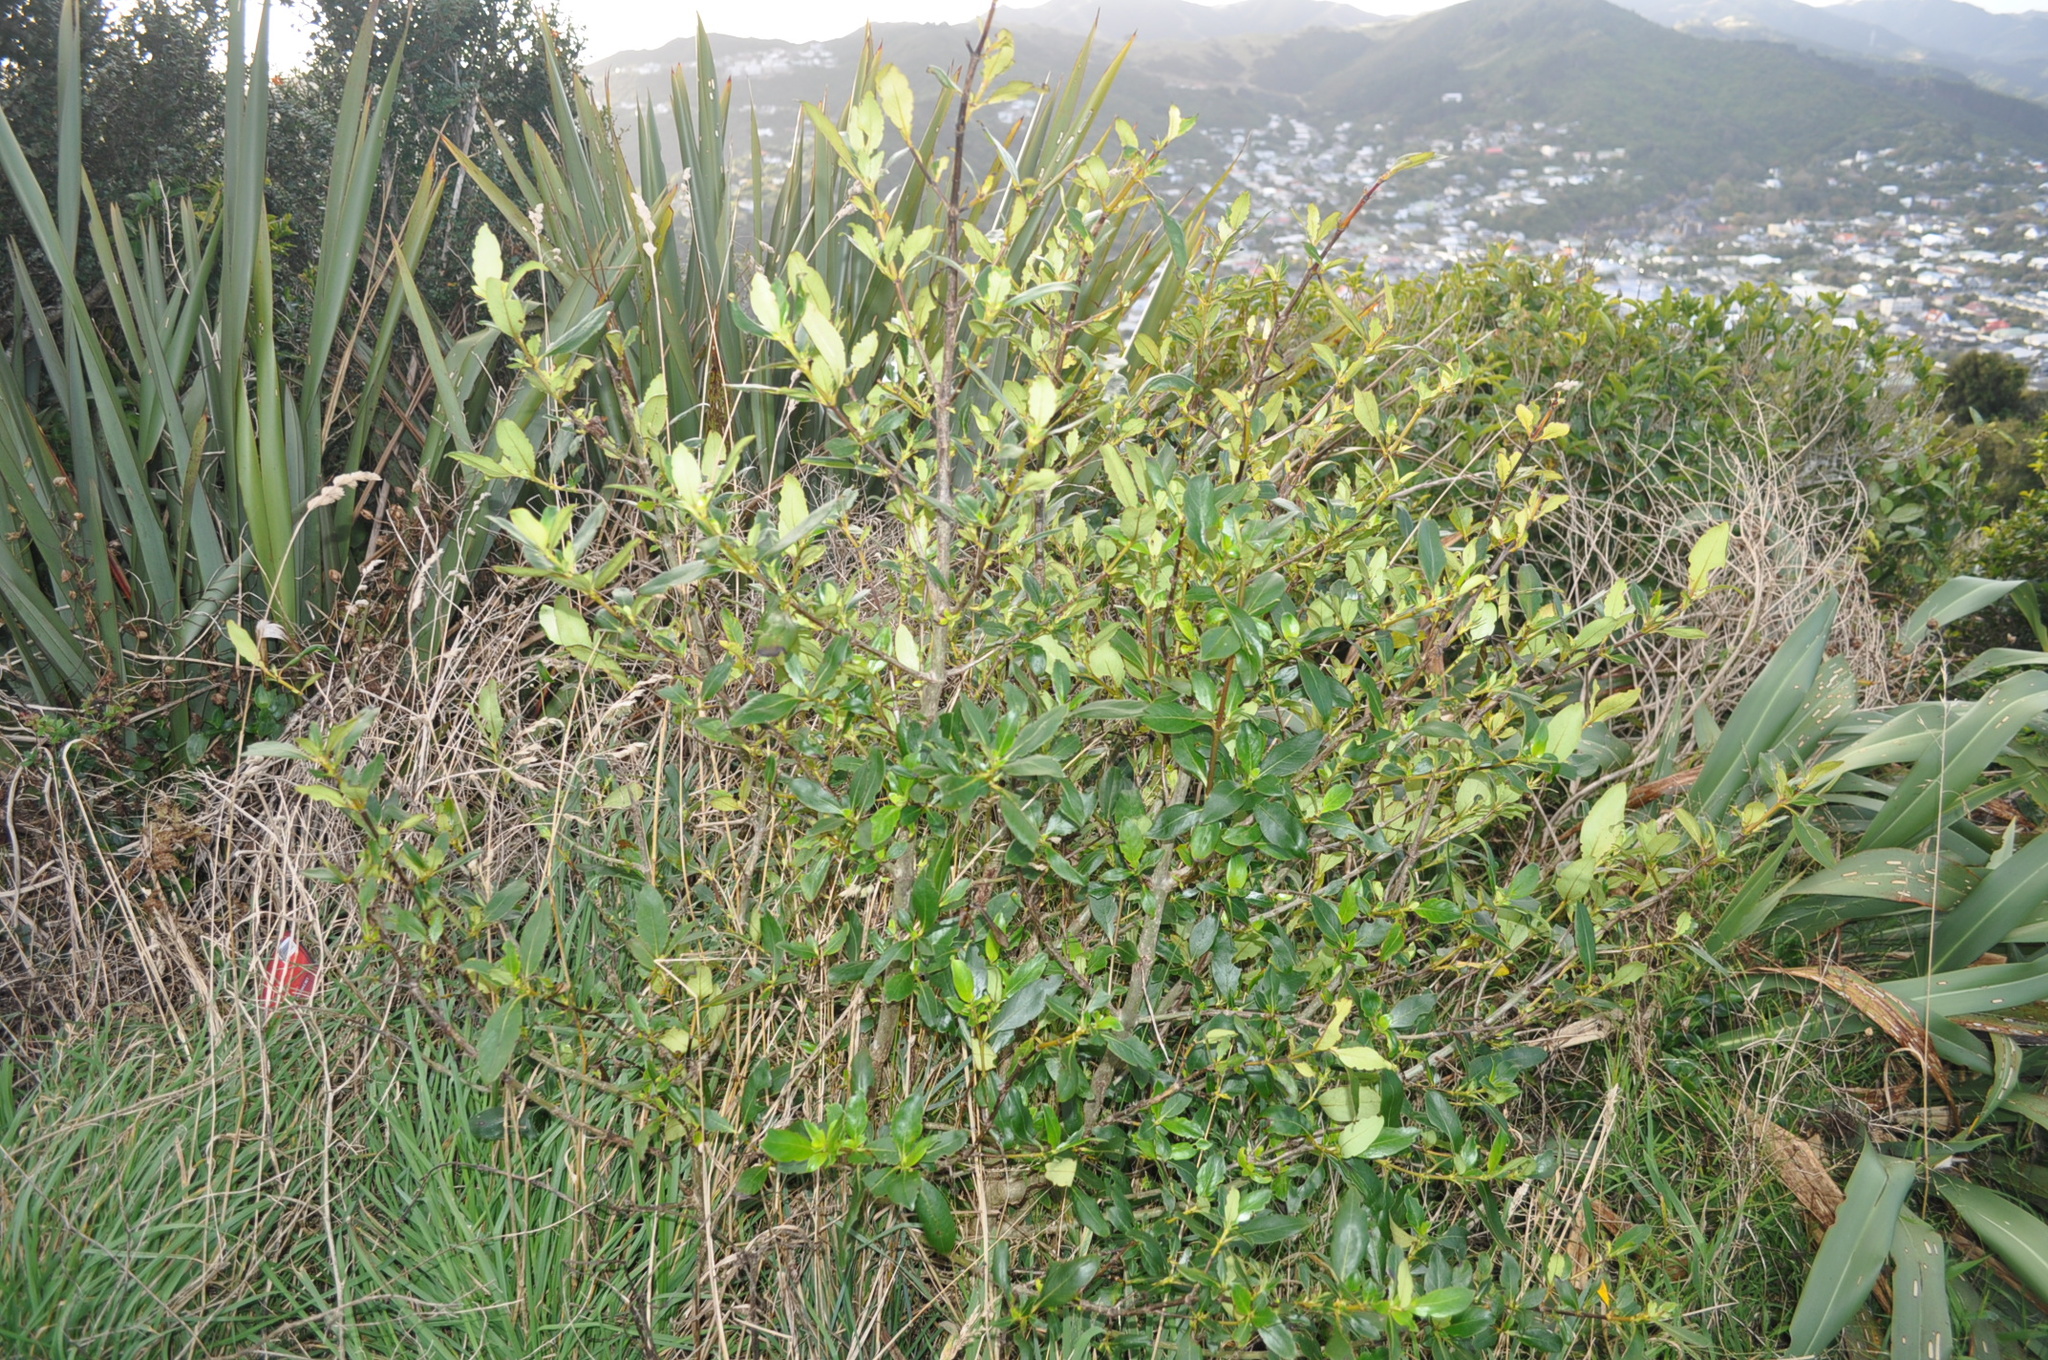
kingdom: Plantae
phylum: Tracheophyta
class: Magnoliopsida
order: Gentianales
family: Rubiaceae
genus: Coprosma
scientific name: Coprosma robusta
